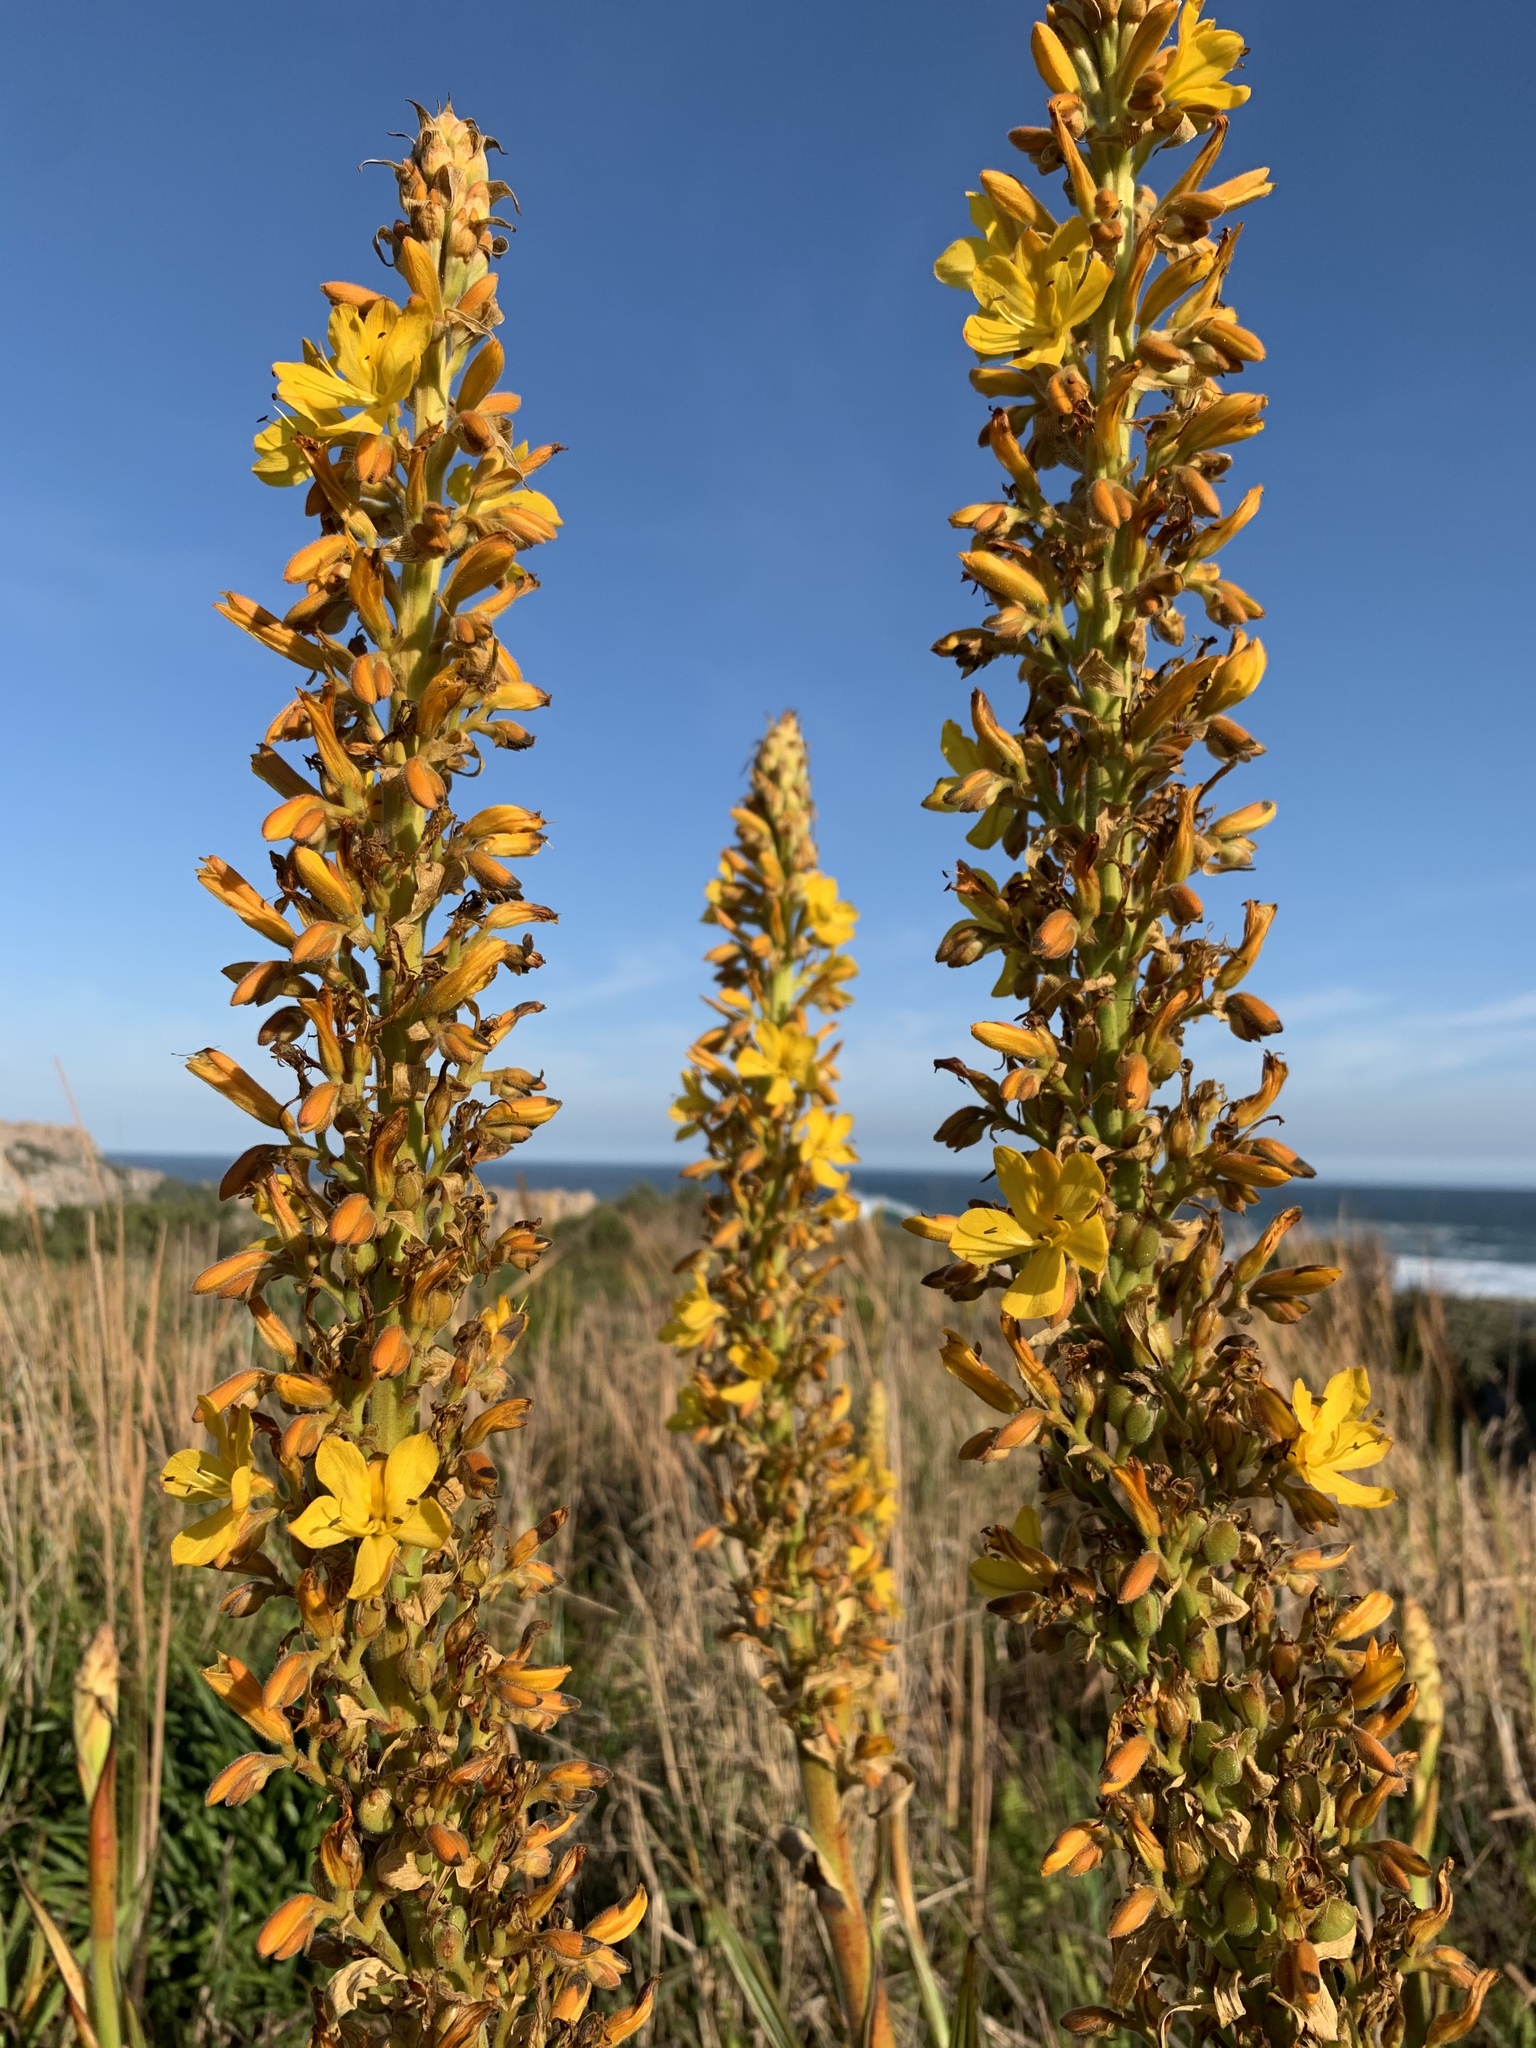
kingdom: Plantae
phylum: Tracheophyta
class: Liliopsida
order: Commelinales
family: Haemodoraceae
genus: Wachendorfia
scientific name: Wachendorfia thyrsiflora
